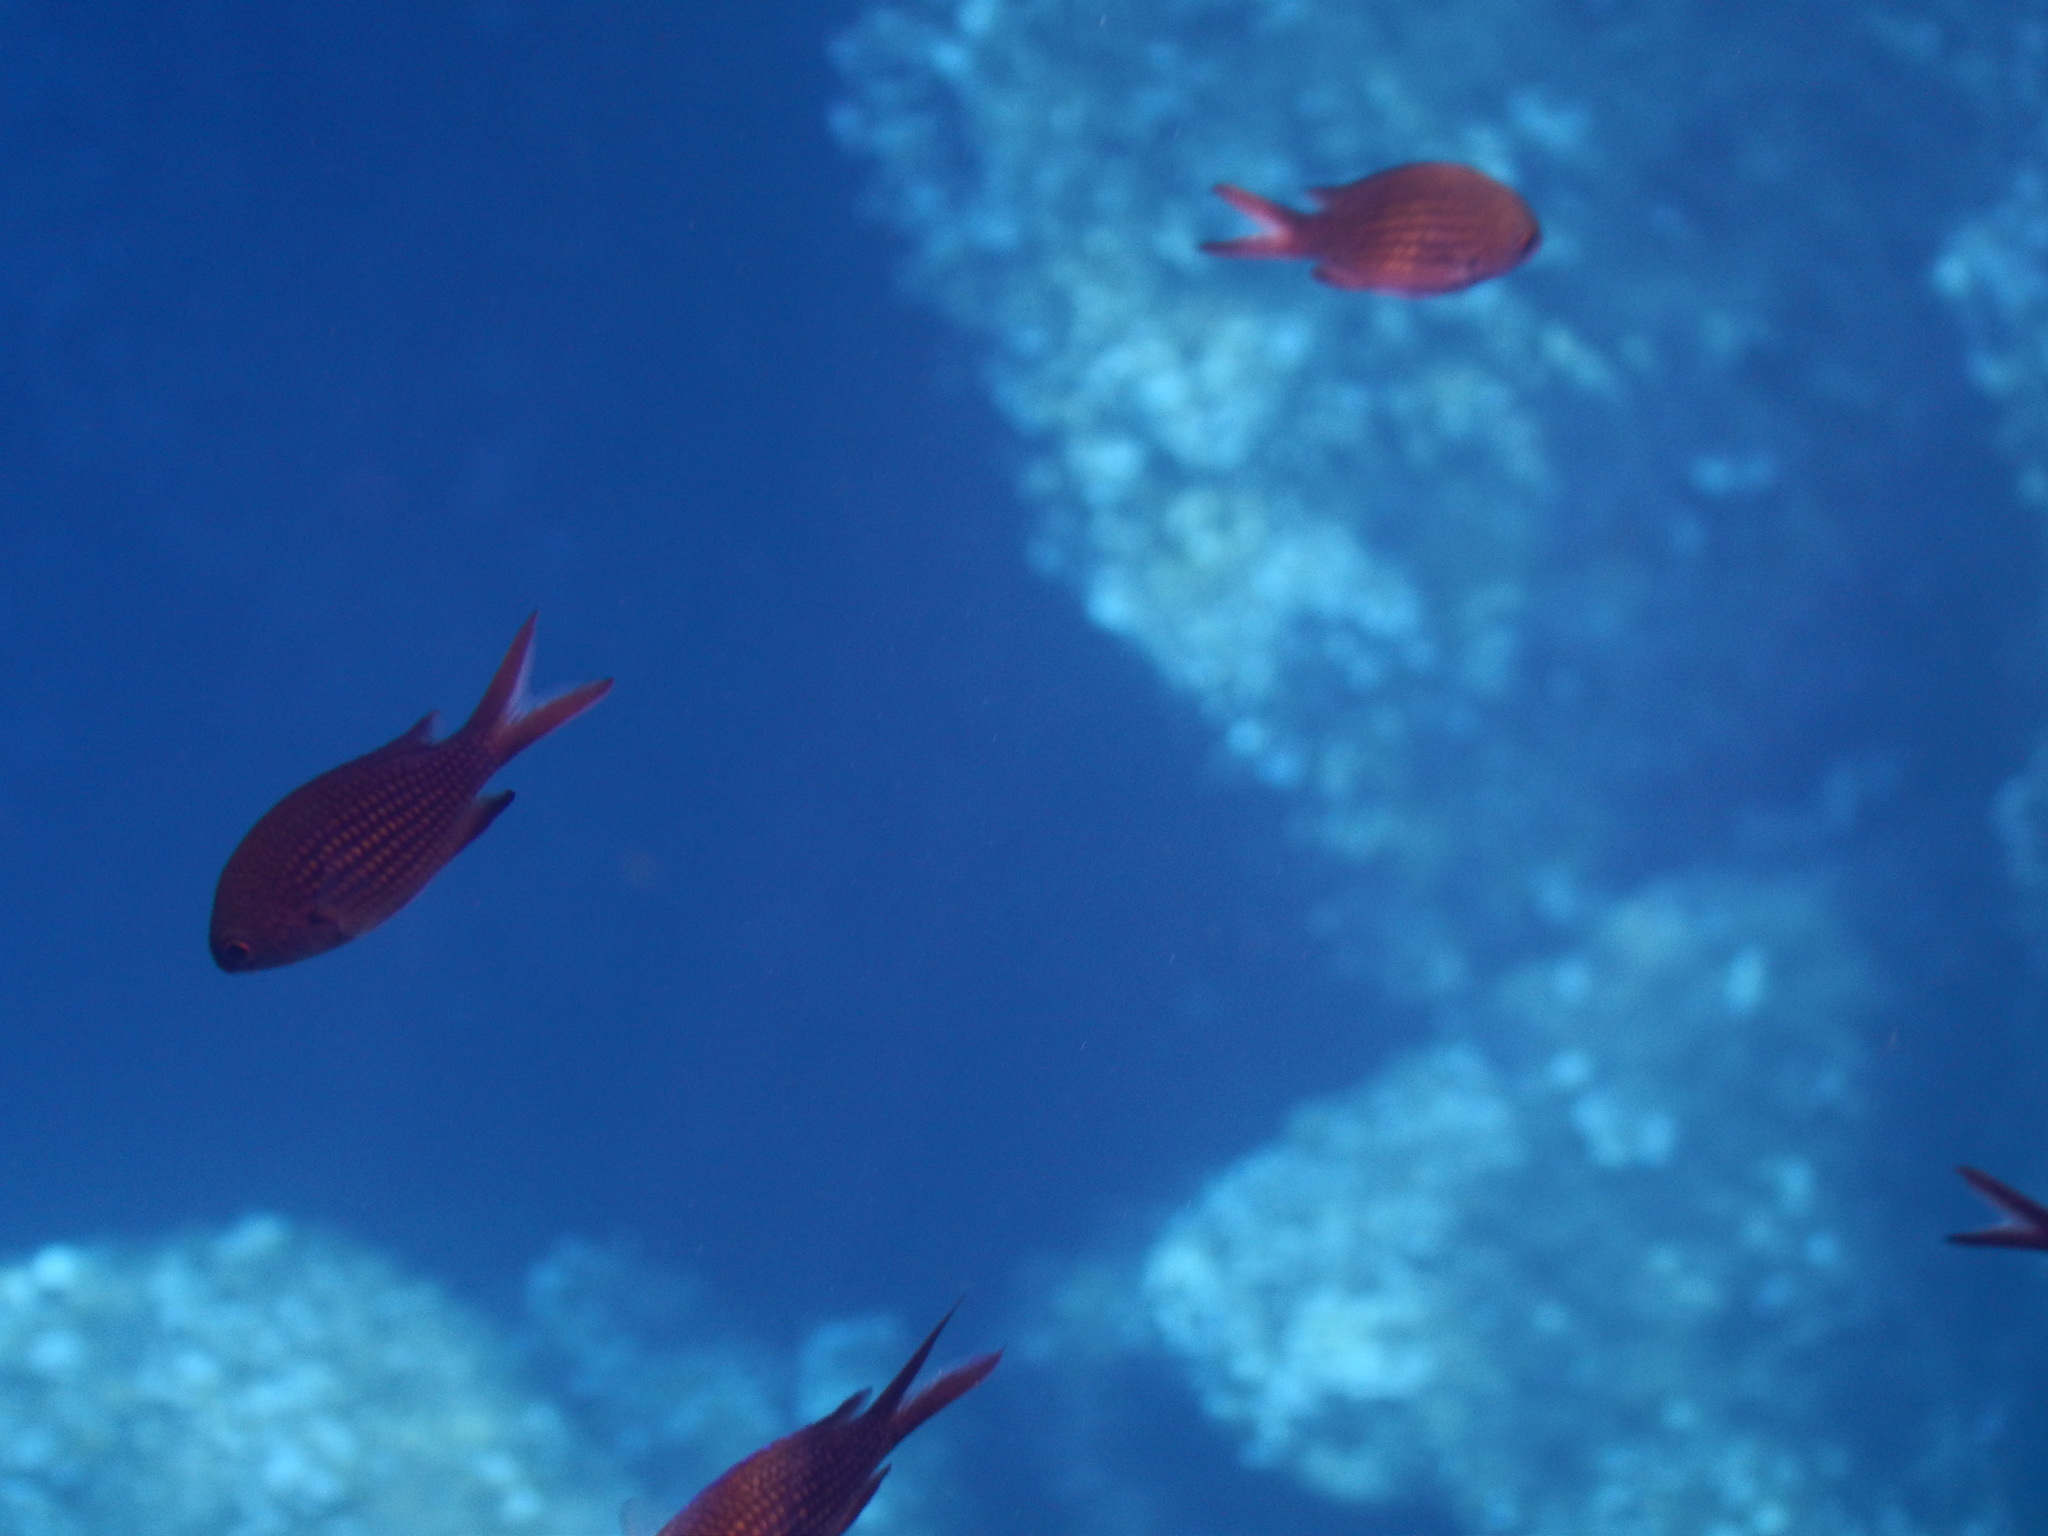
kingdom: Animalia
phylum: Chordata
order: Perciformes
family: Pomacentridae
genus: Chromis
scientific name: Chromis chromis
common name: Damselfish
